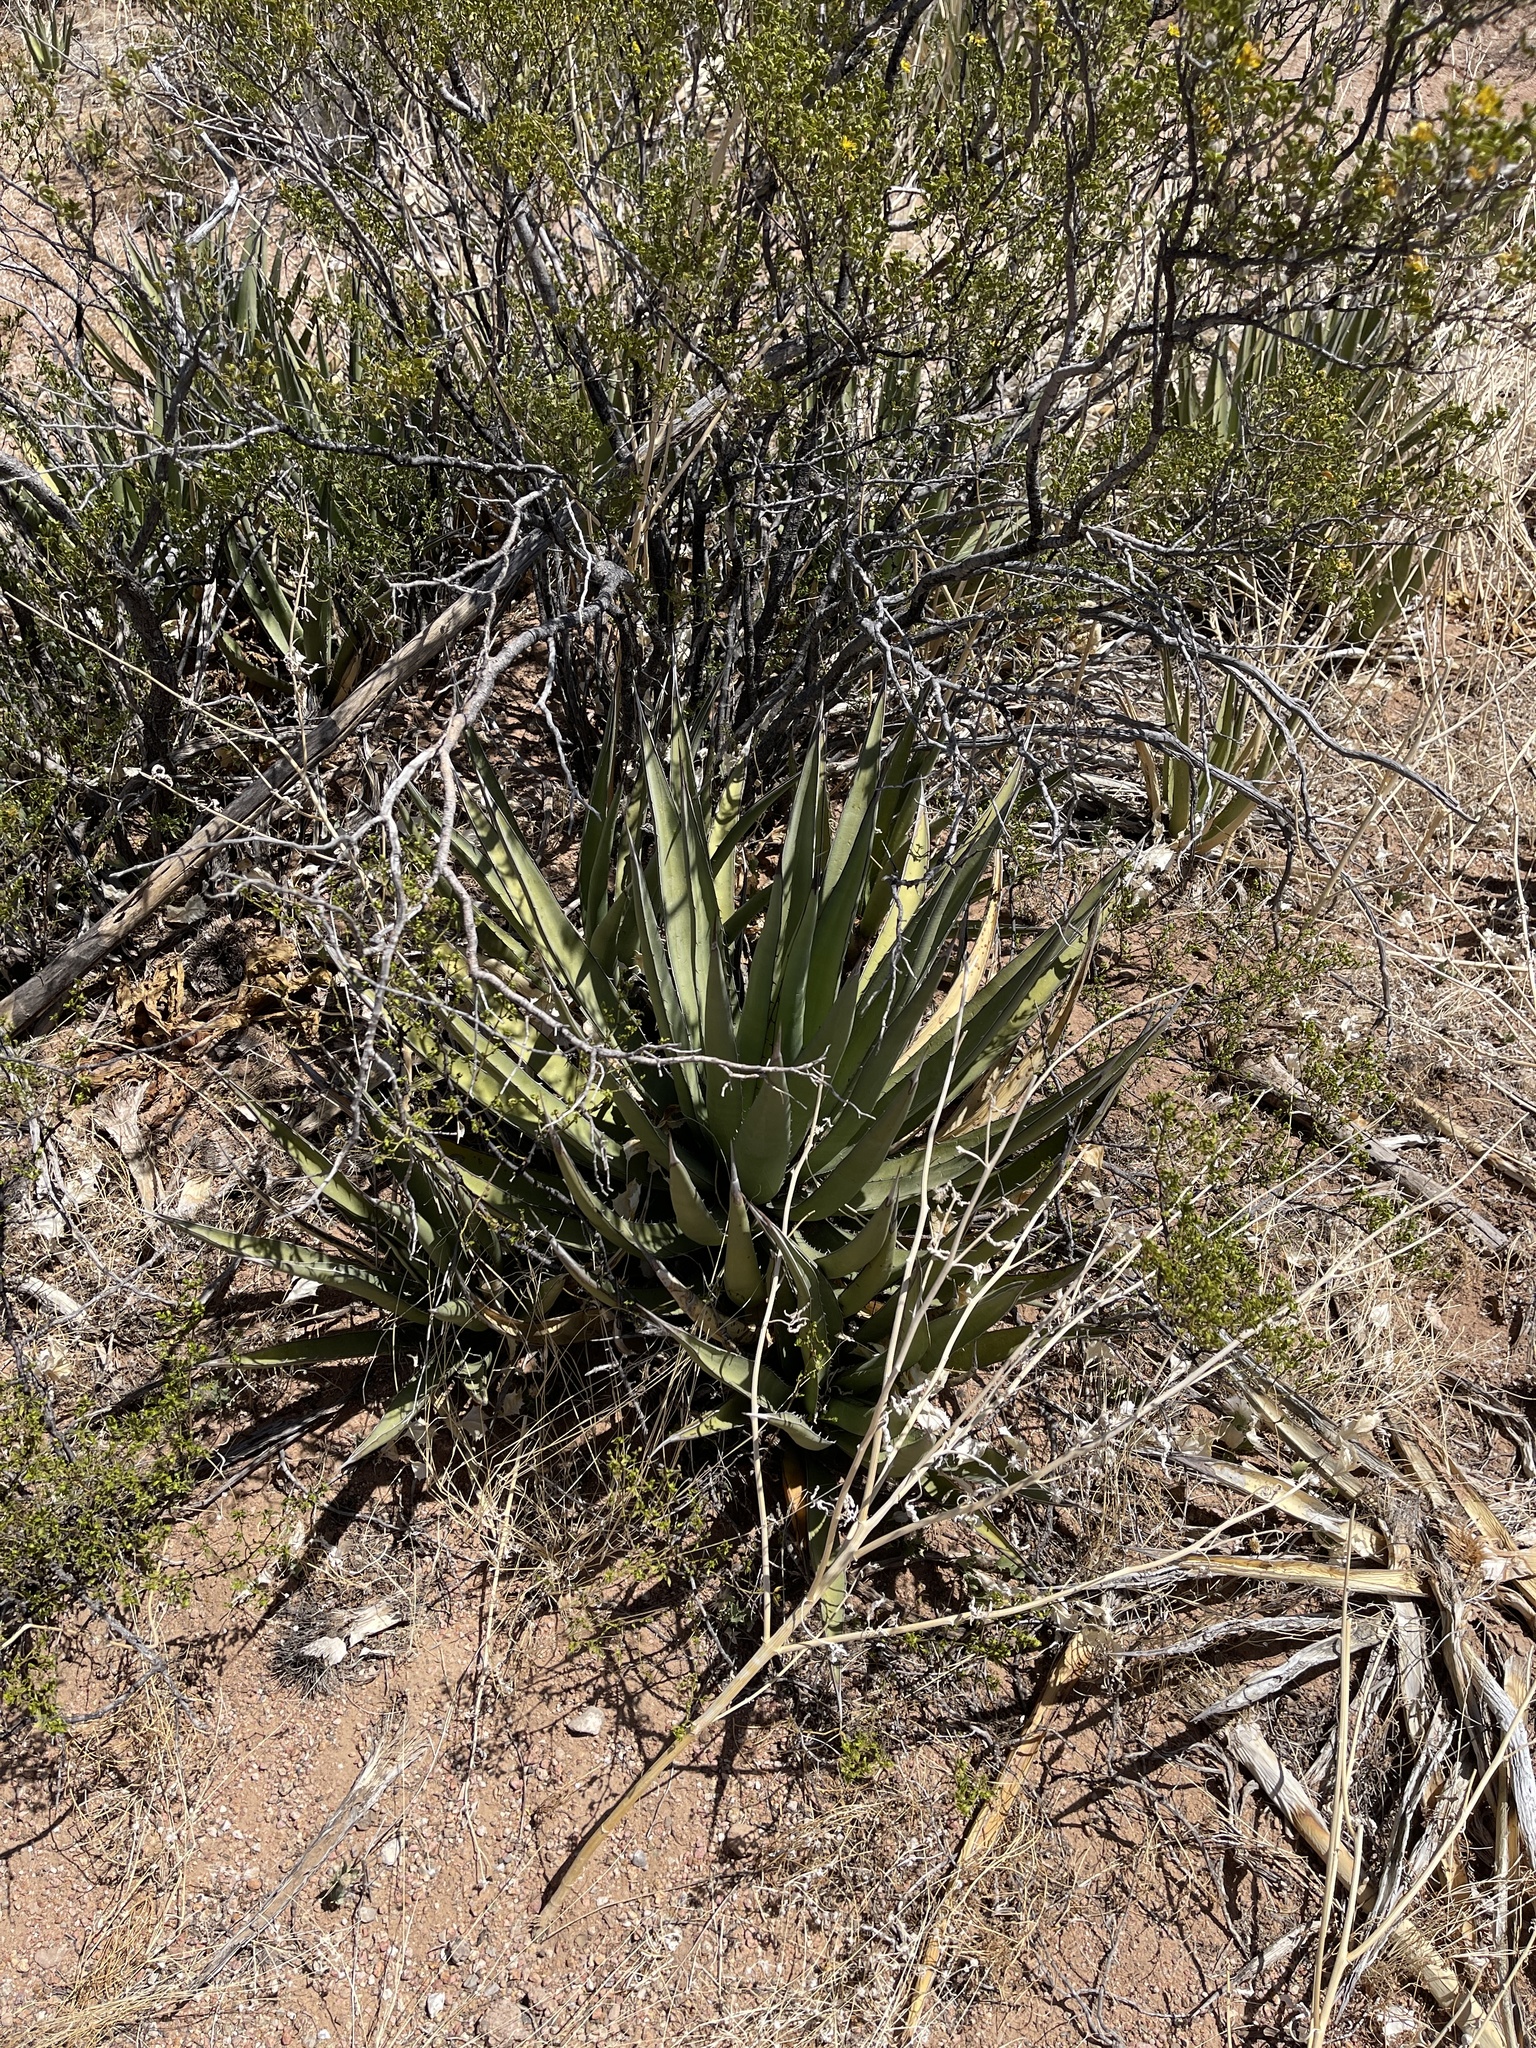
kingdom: Plantae
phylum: Tracheophyta
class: Liliopsida
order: Asparagales
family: Asparagaceae
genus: Agave
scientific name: Agave lechuguilla
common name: Lecheguilla agave
